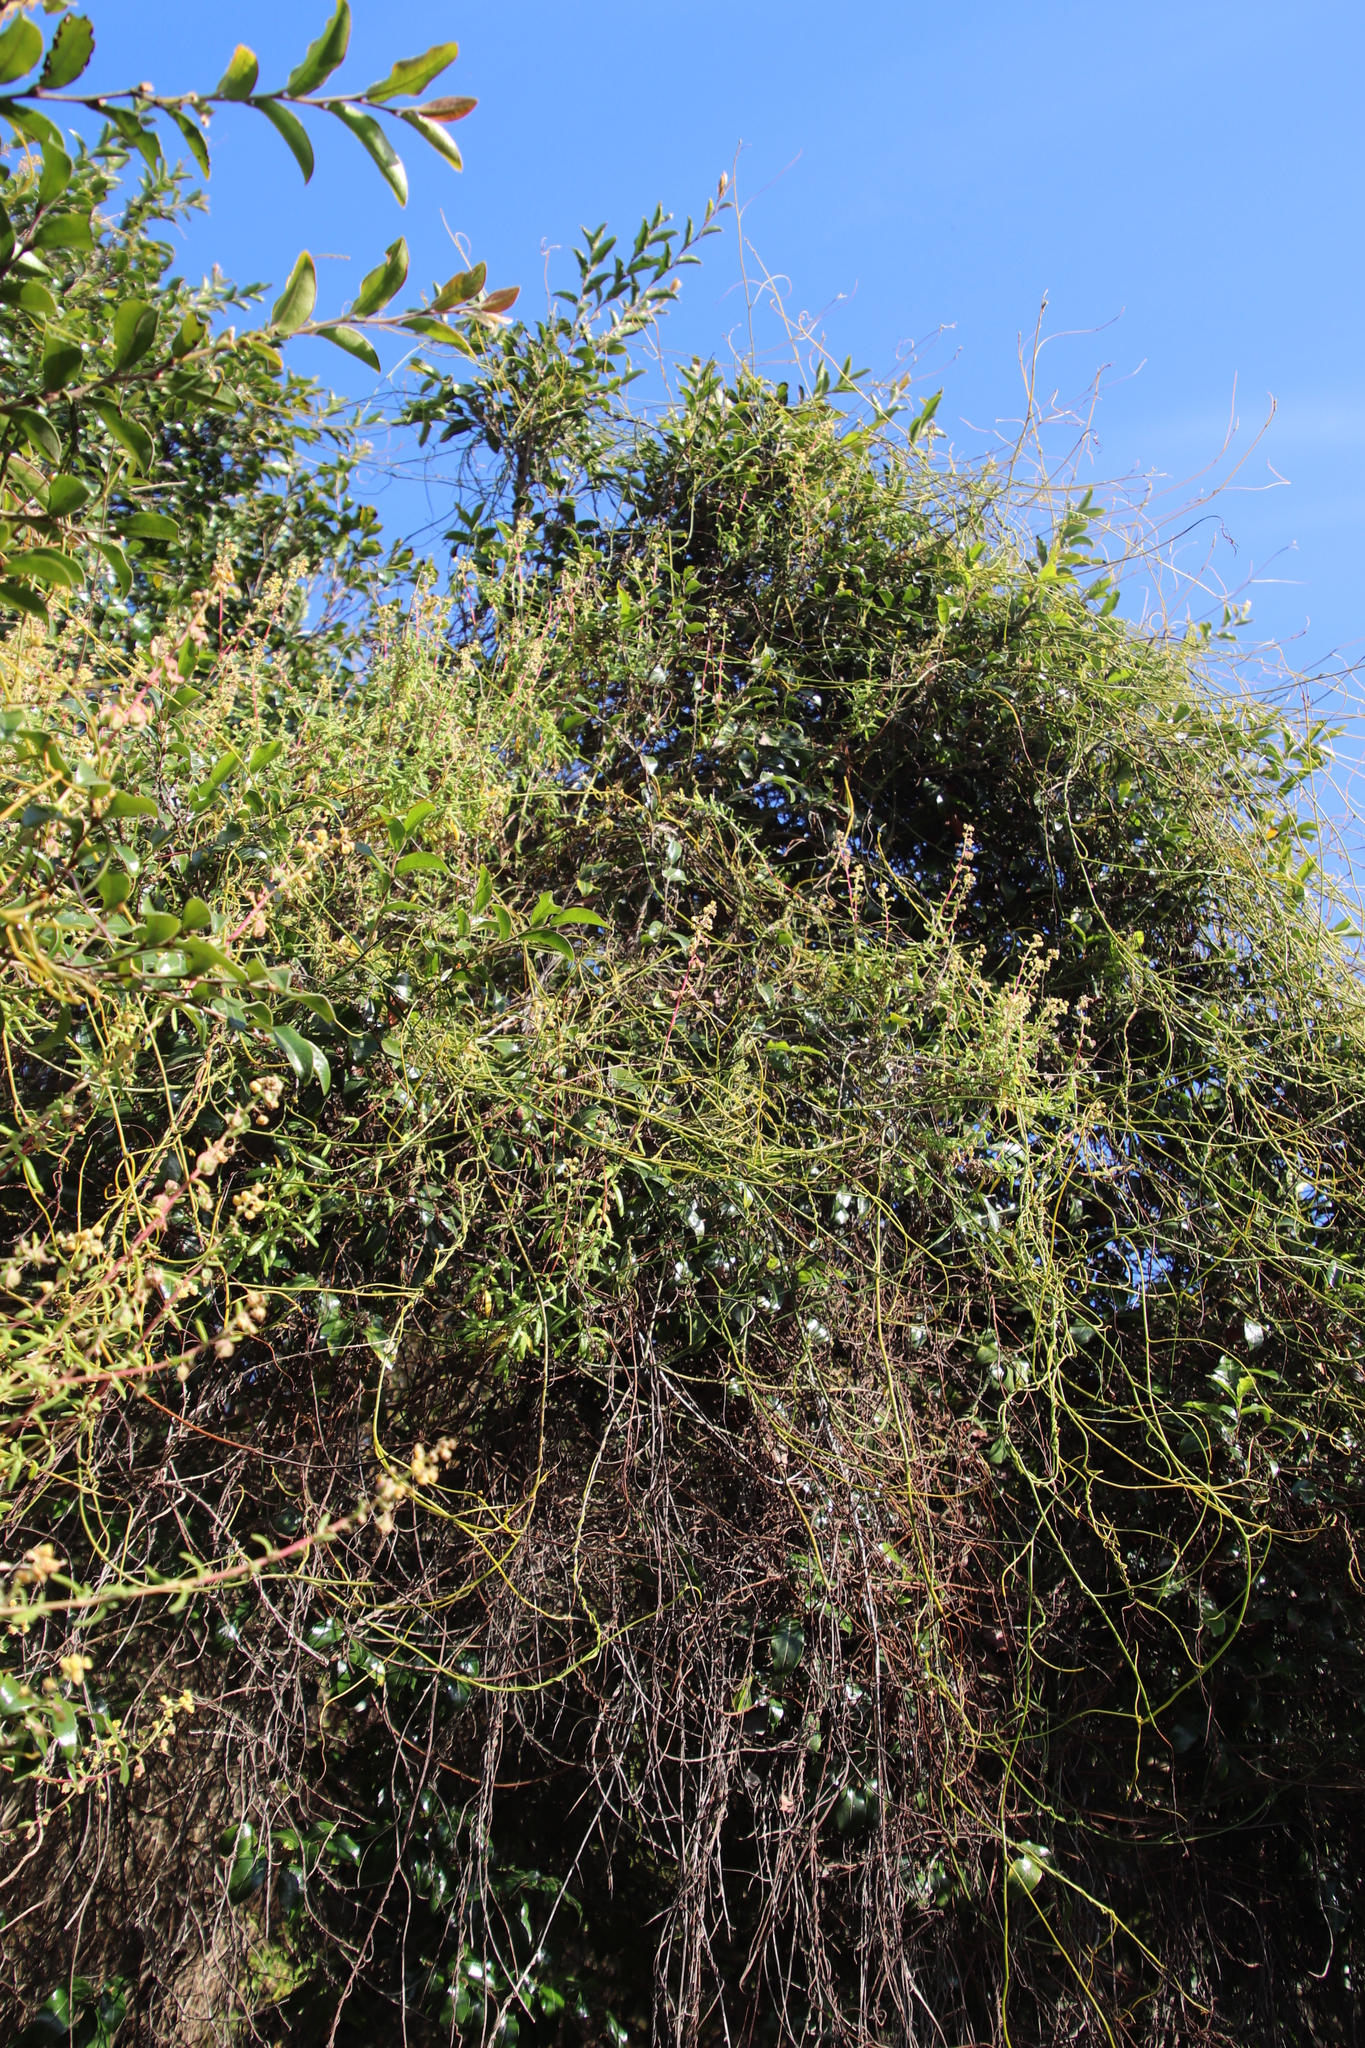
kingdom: Plantae
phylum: Tracheophyta
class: Magnoliopsida
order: Caryophyllales
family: Aizoaceae
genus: Tetragonia
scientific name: Tetragonia fruticosa
